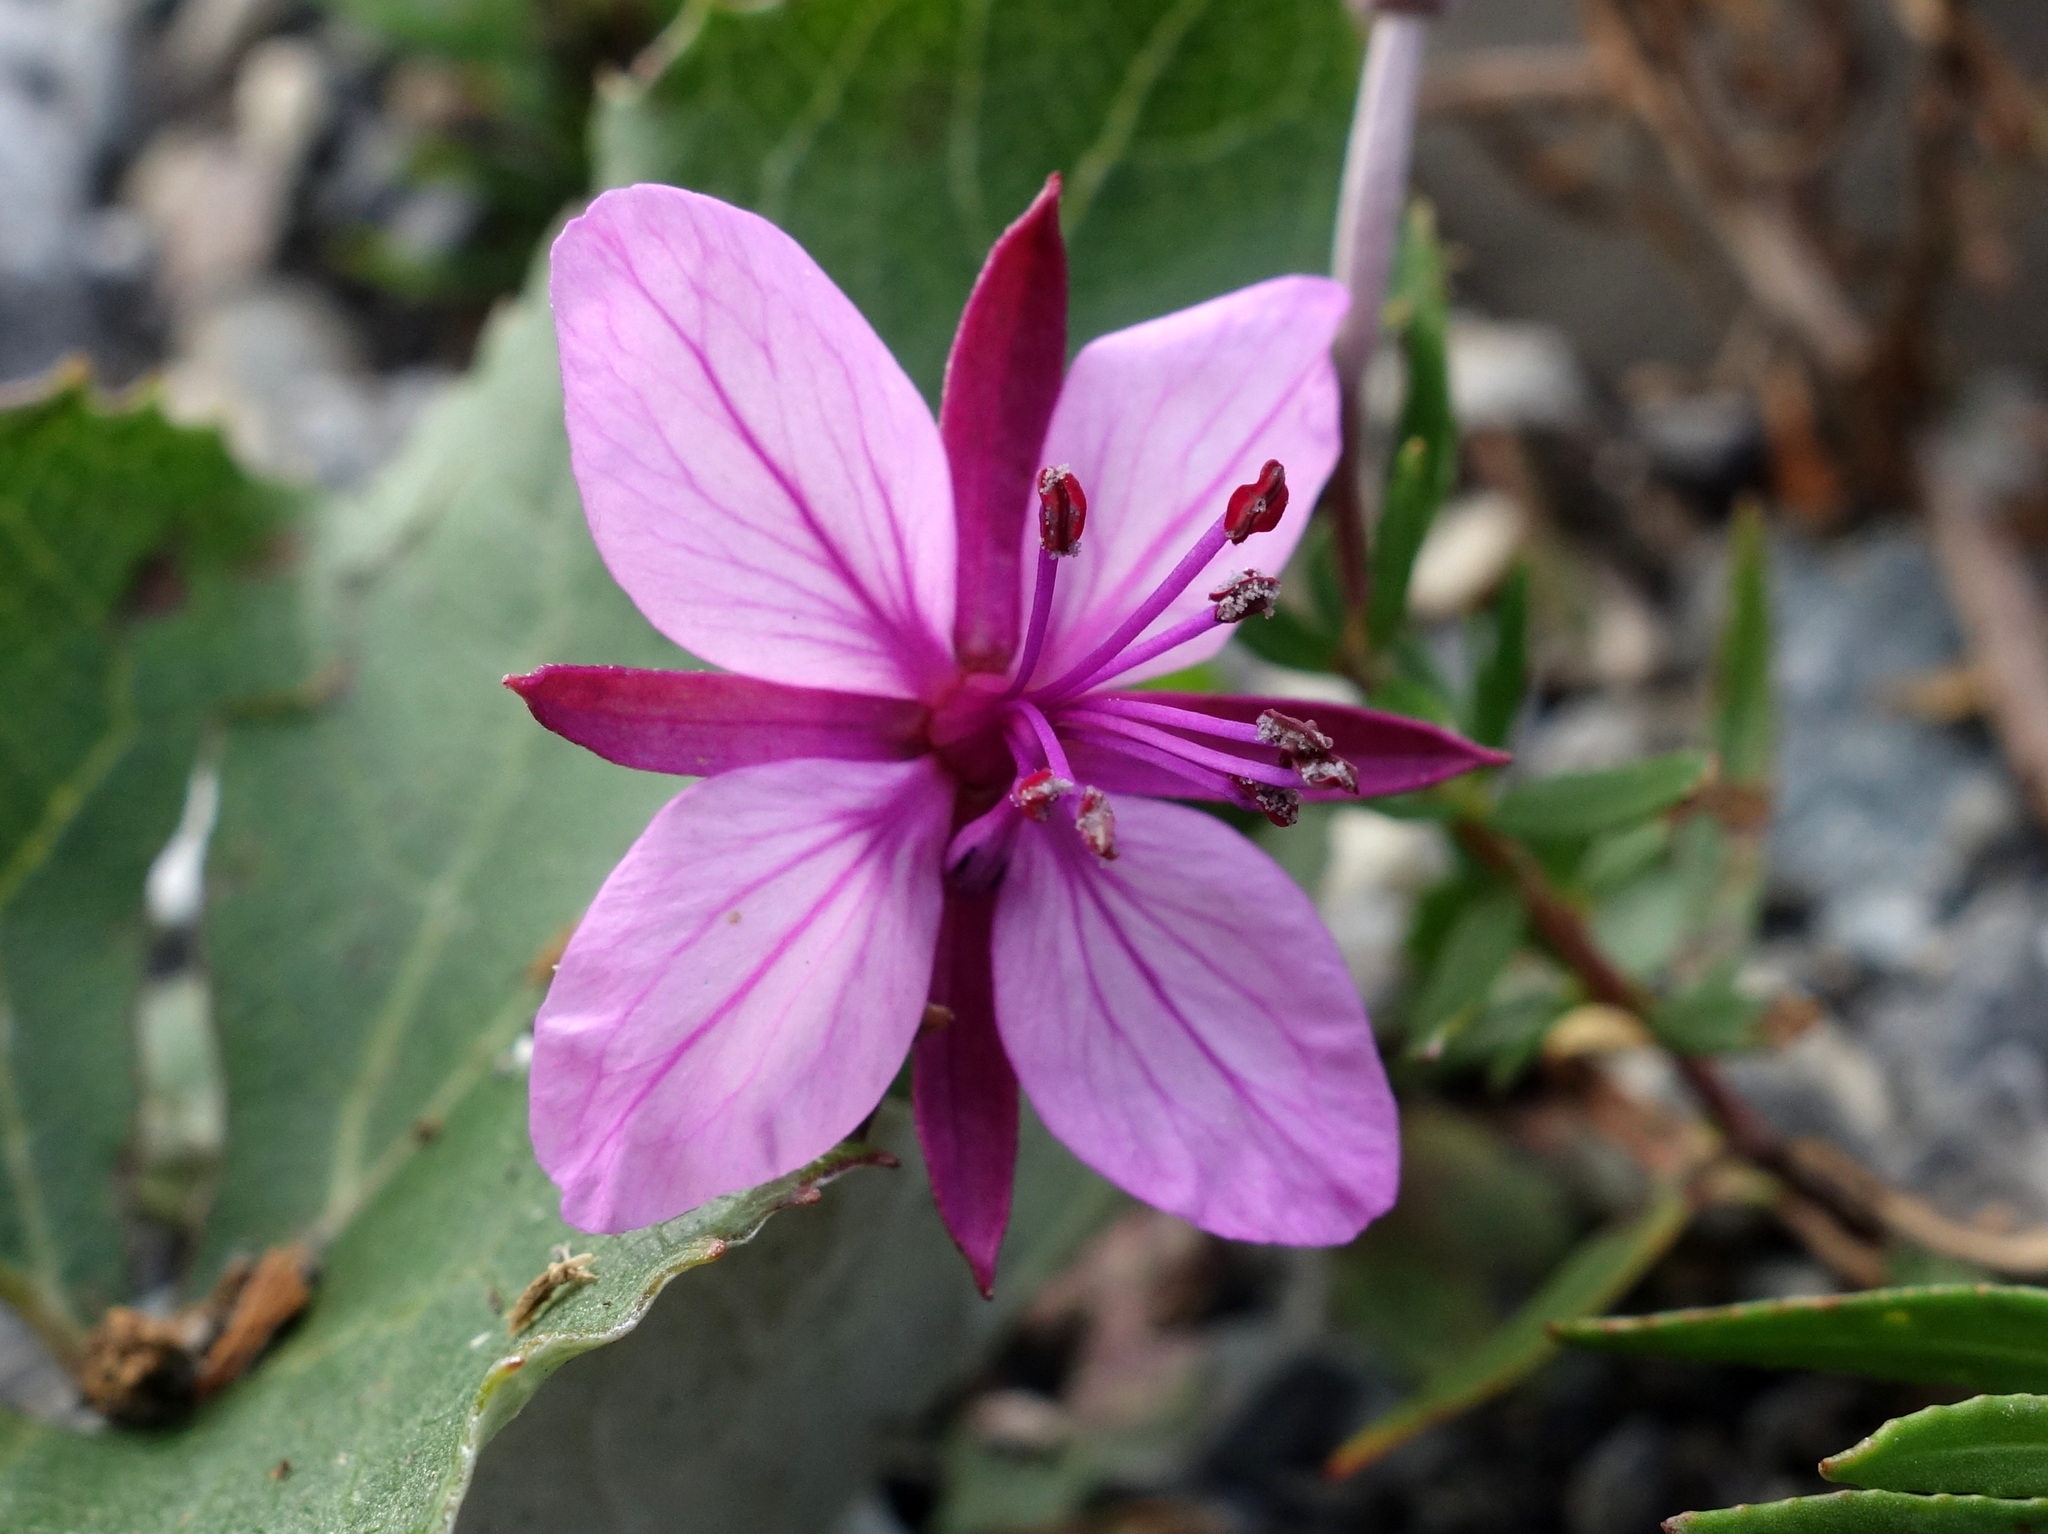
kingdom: Plantae
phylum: Tracheophyta
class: Magnoliopsida
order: Myrtales
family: Onagraceae
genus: Chamaenerion
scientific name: Chamaenerion fleischeri
